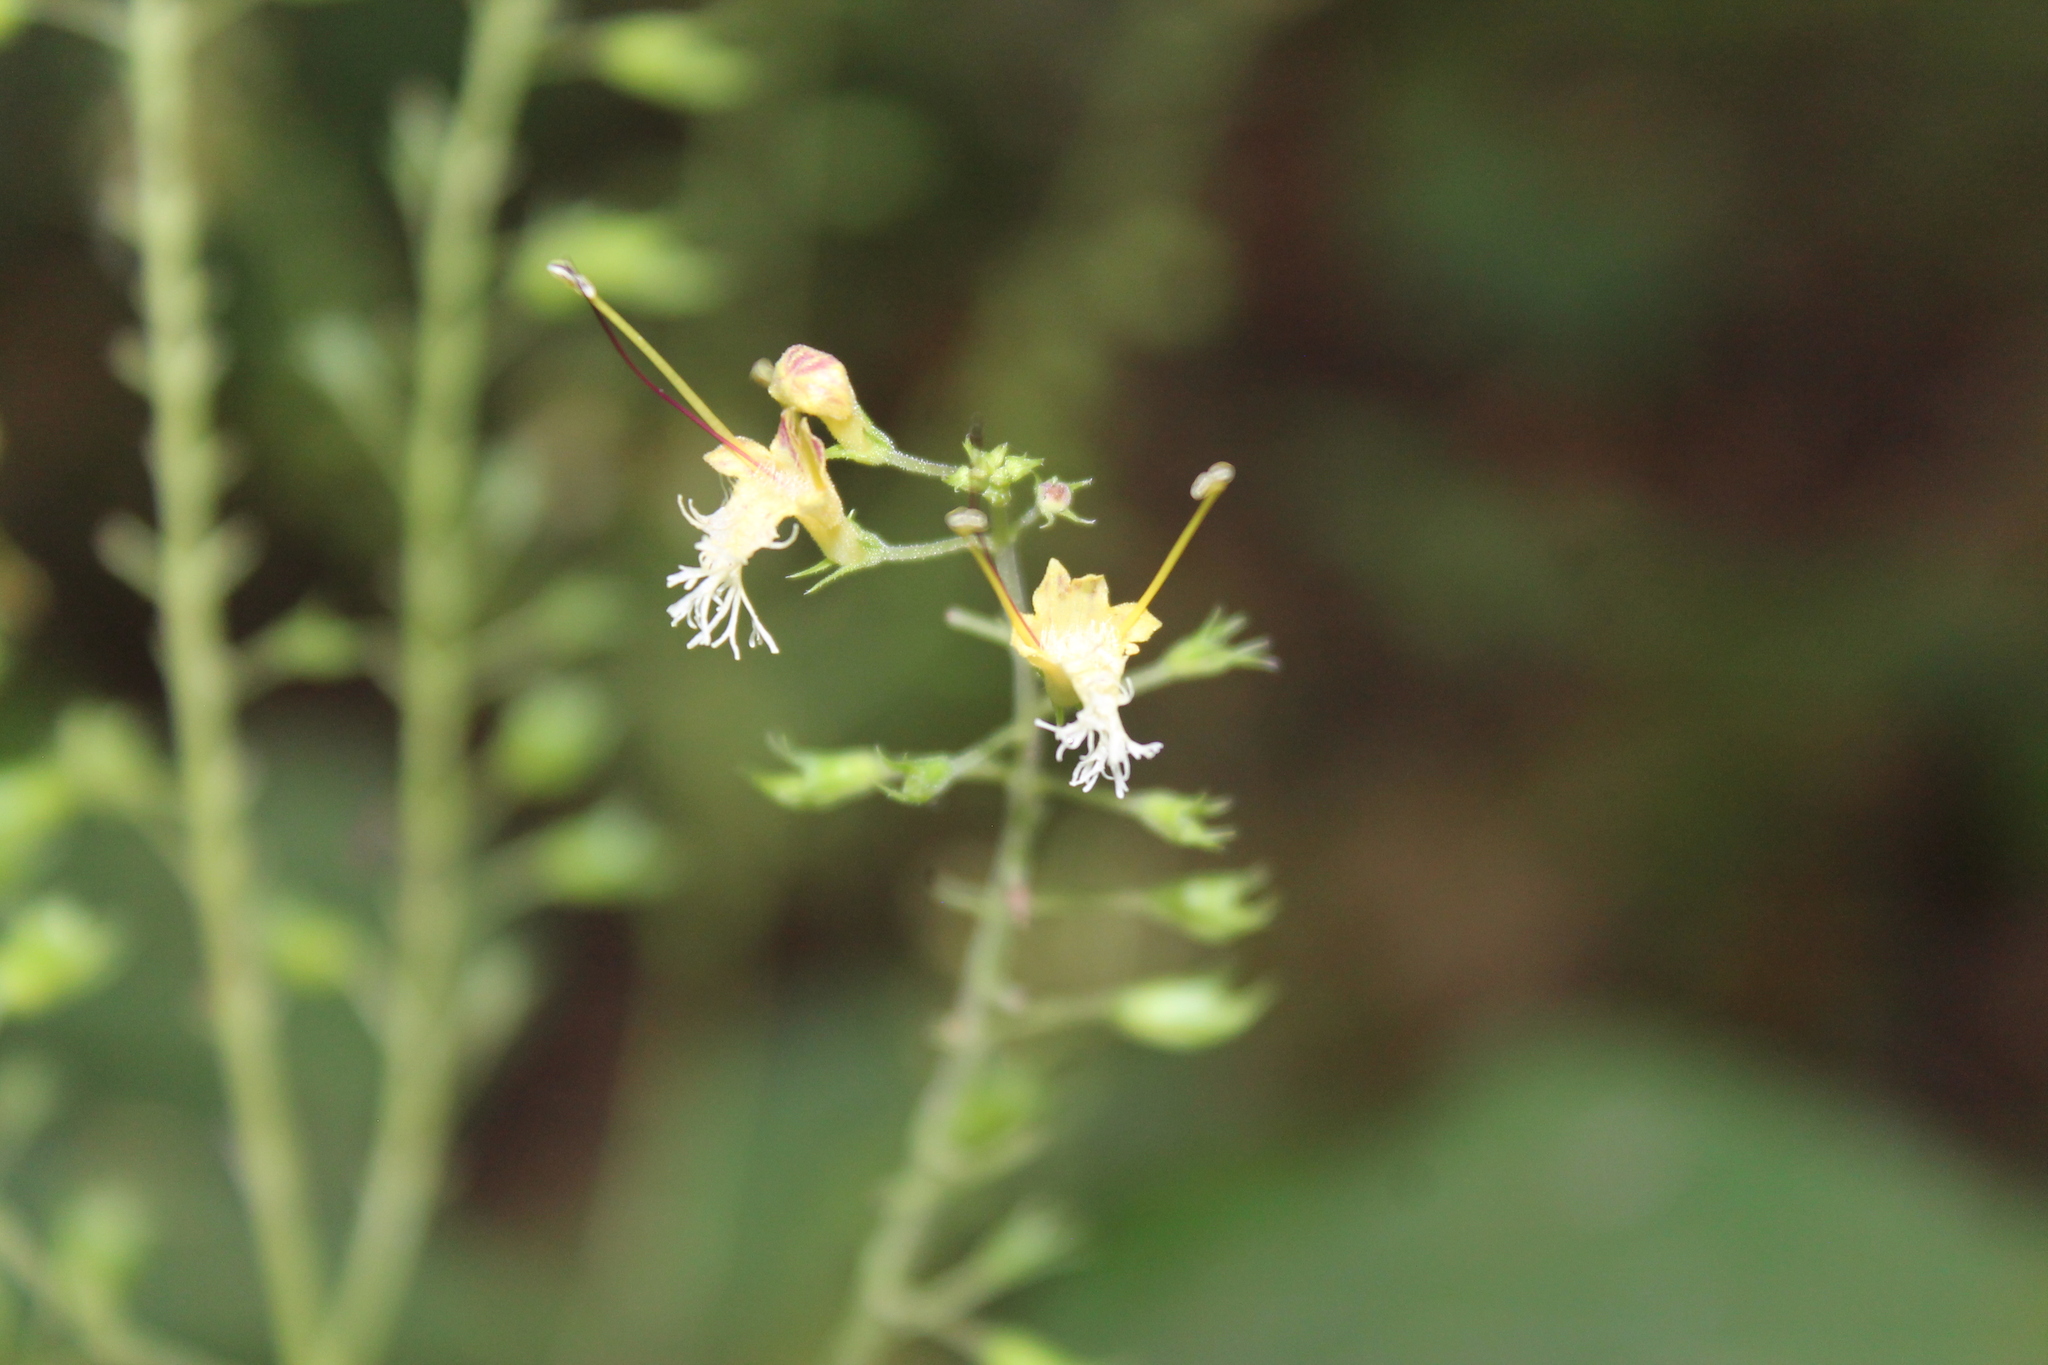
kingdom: Plantae
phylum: Tracheophyta
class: Magnoliopsida
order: Lamiales
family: Lamiaceae
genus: Collinsonia
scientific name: Collinsonia canadensis
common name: Northern horsebalm
